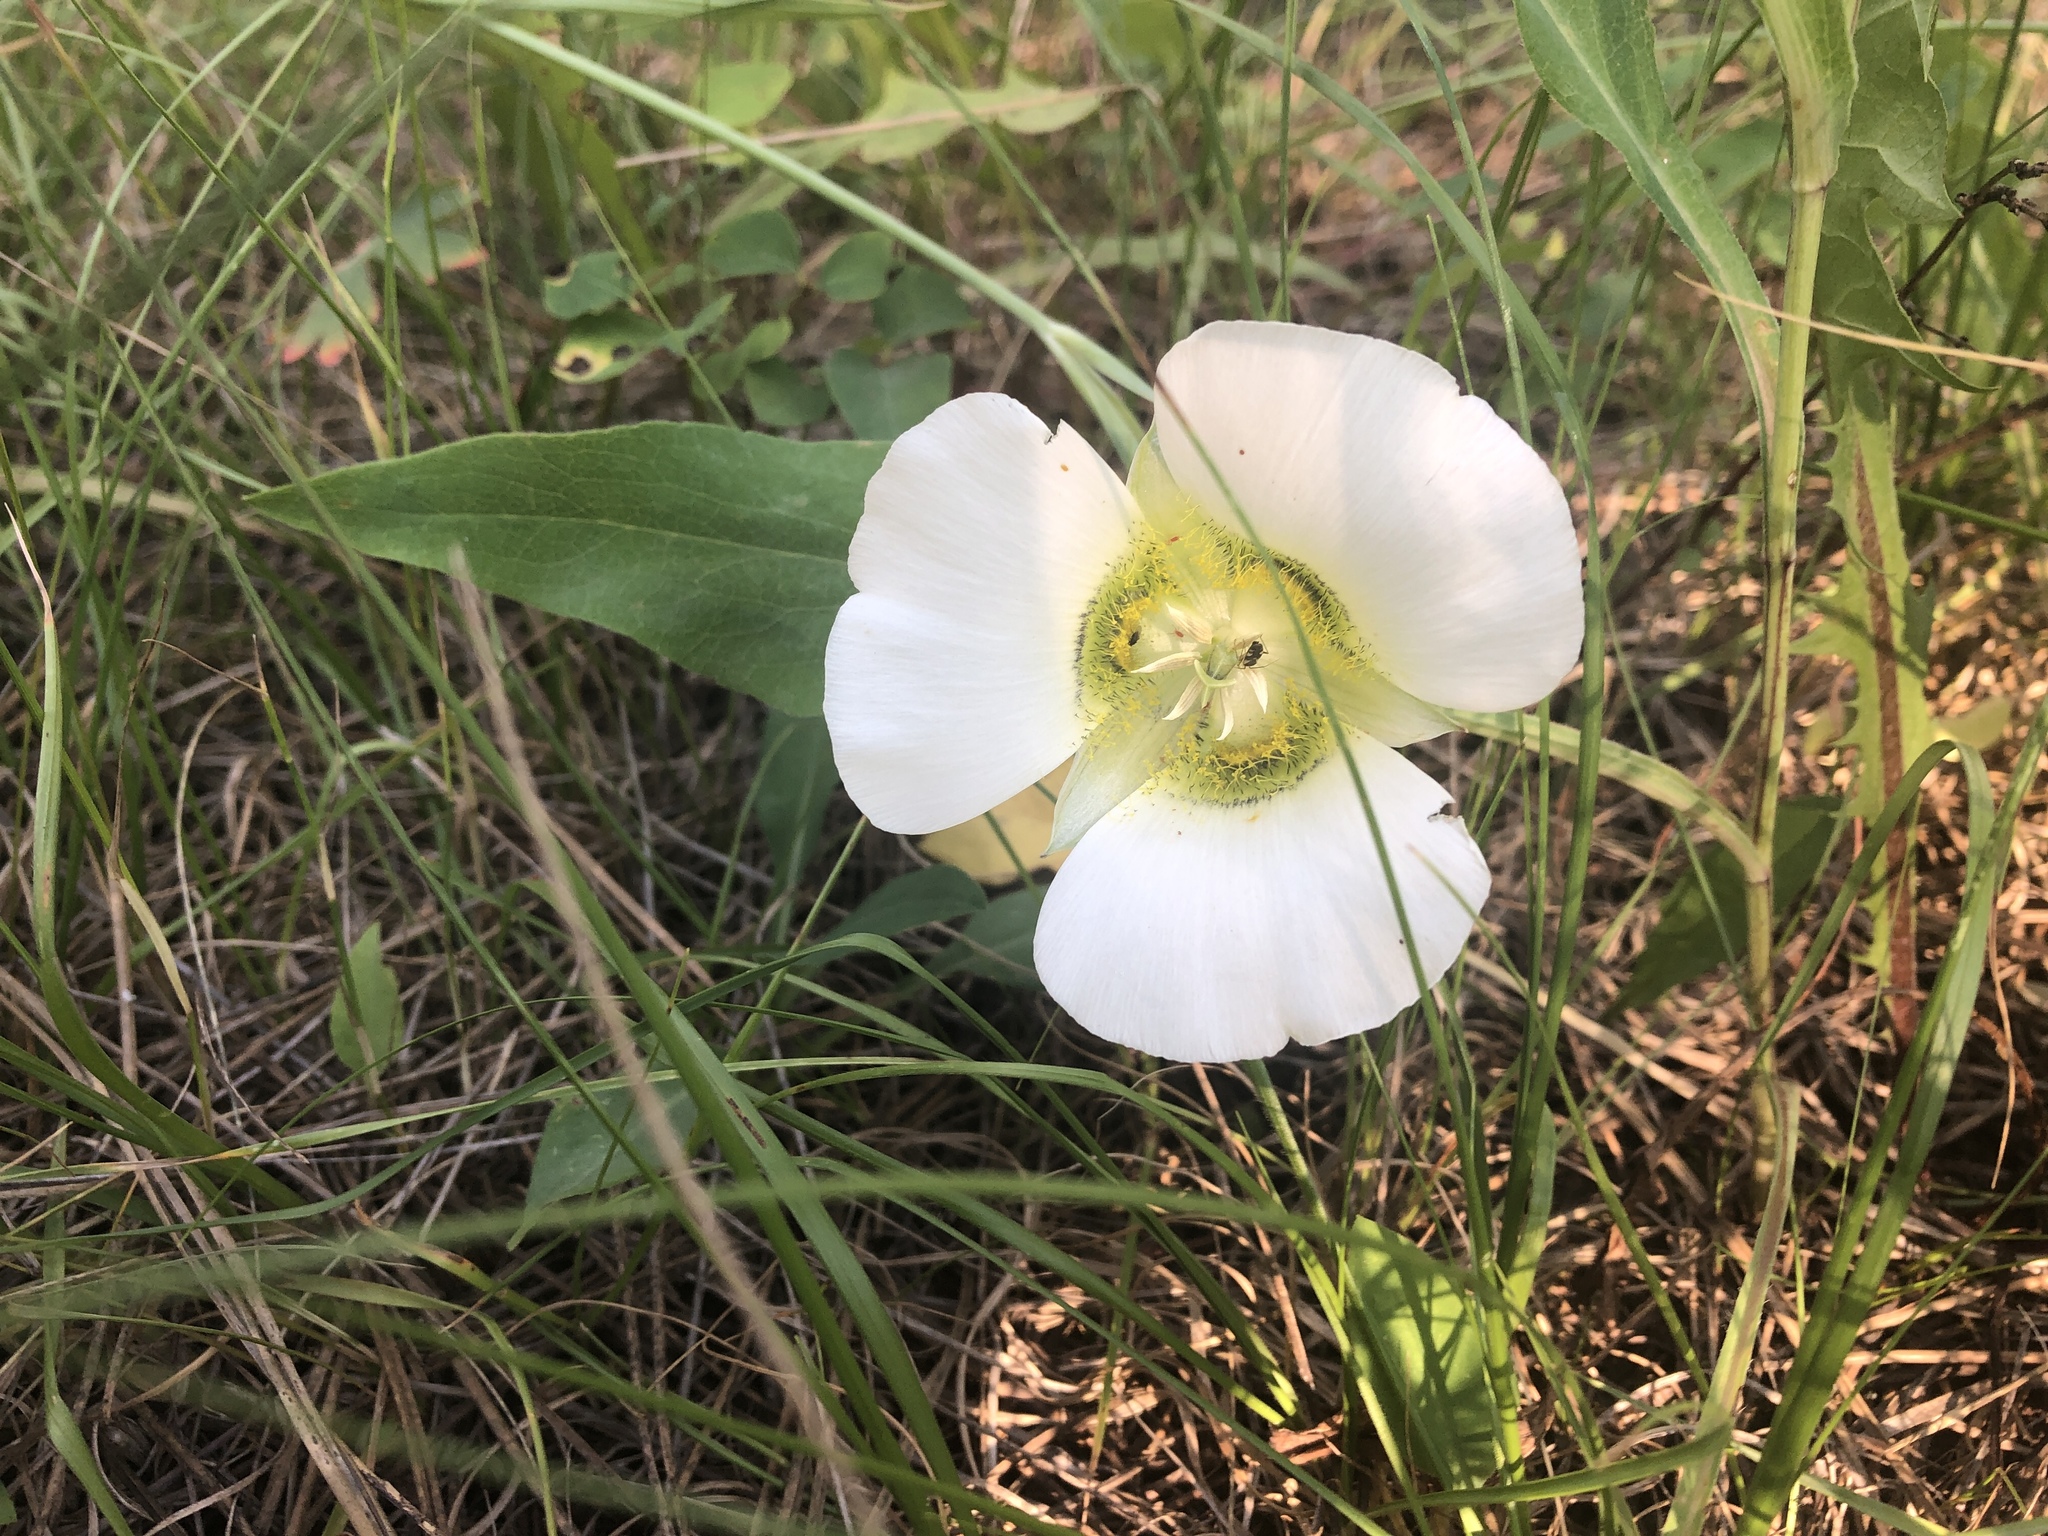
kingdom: Plantae
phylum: Tracheophyta
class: Liliopsida
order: Liliales
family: Liliaceae
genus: Calochortus
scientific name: Calochortus gunnisonii
